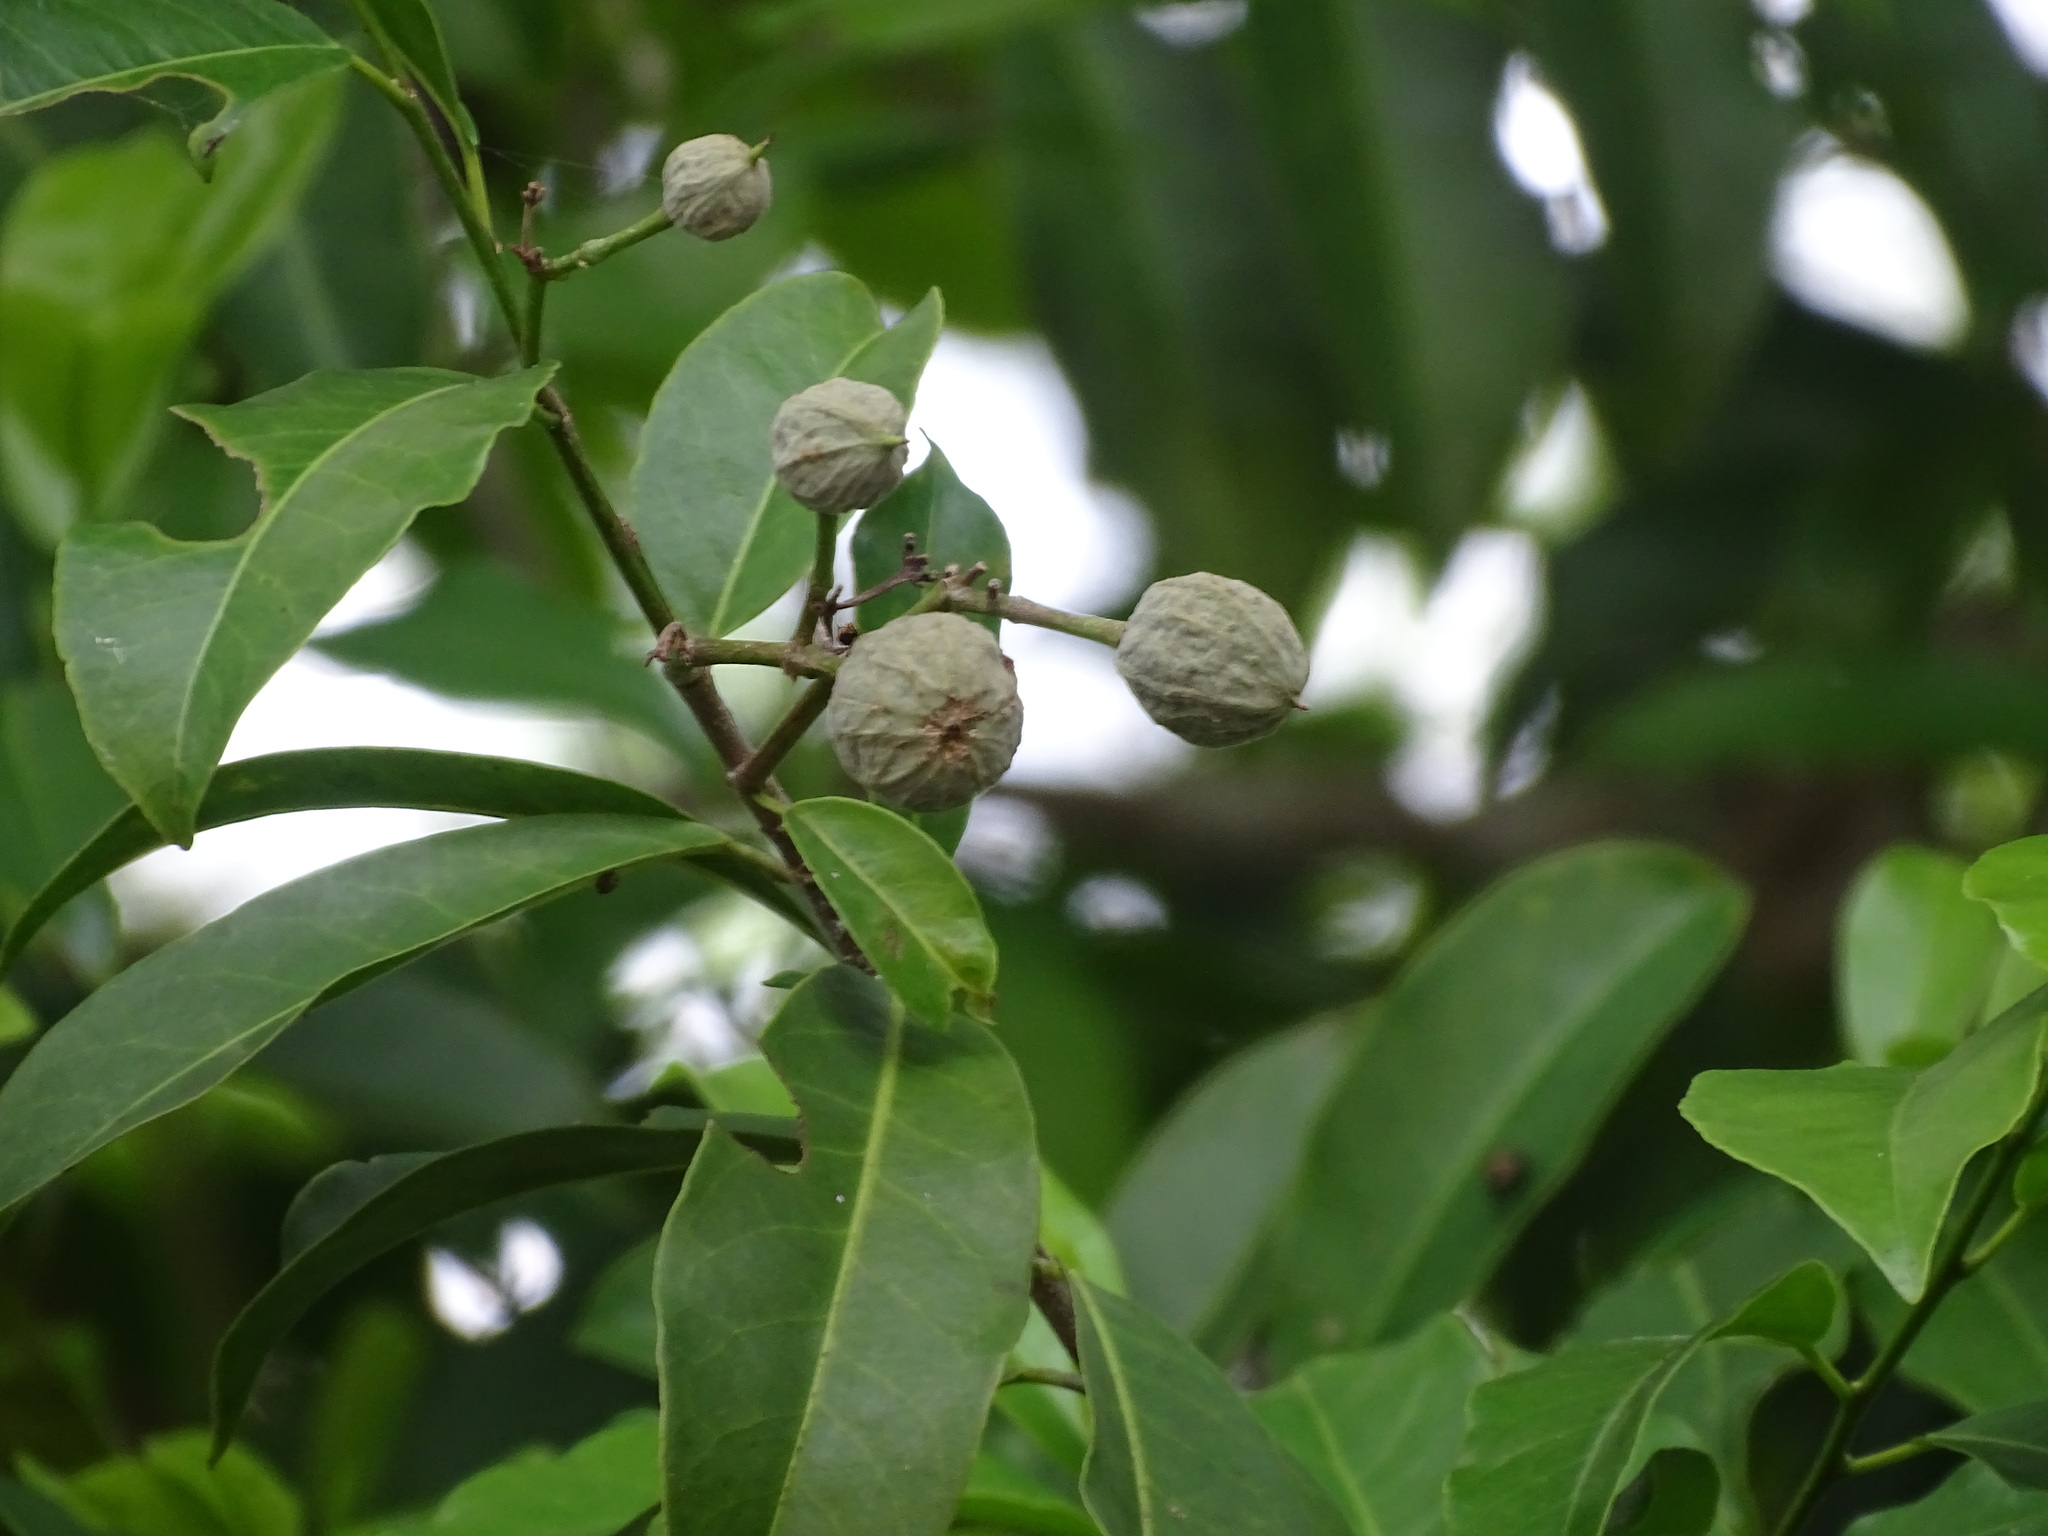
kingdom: Plantae
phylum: Tracheophyta
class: Magnoliopsida
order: Malpighiales
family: Salicaceae
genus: Casearia
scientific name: Casearia thamnia
